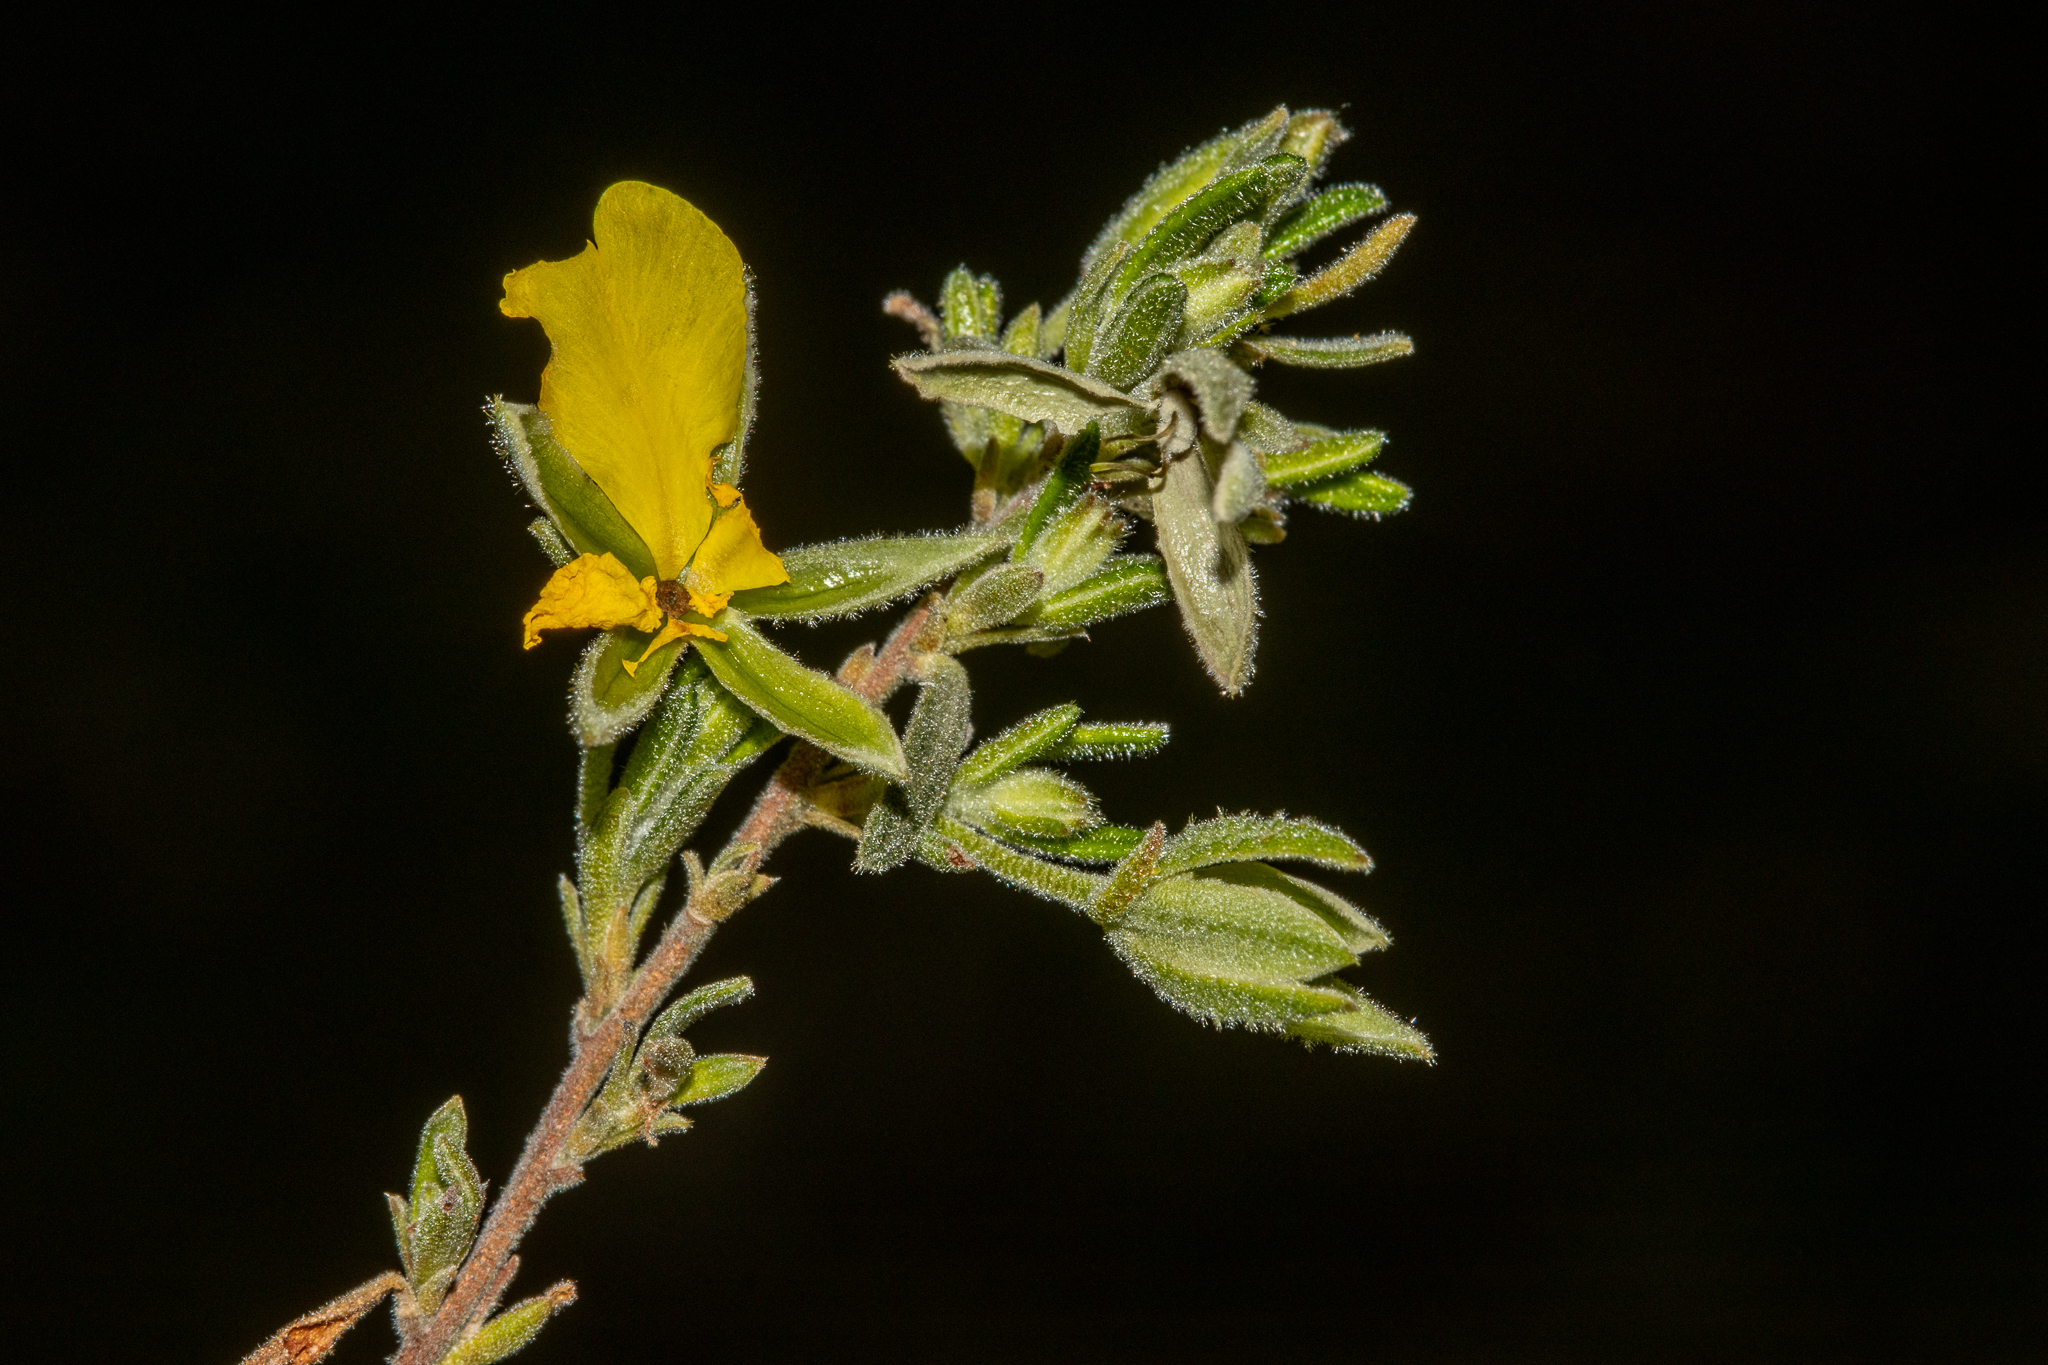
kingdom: Plantae
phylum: Tracheophyta
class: Magnoliopsida
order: Dilleniales
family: Dilleniaceae
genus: Hibbertia
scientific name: Hibbertia australis
